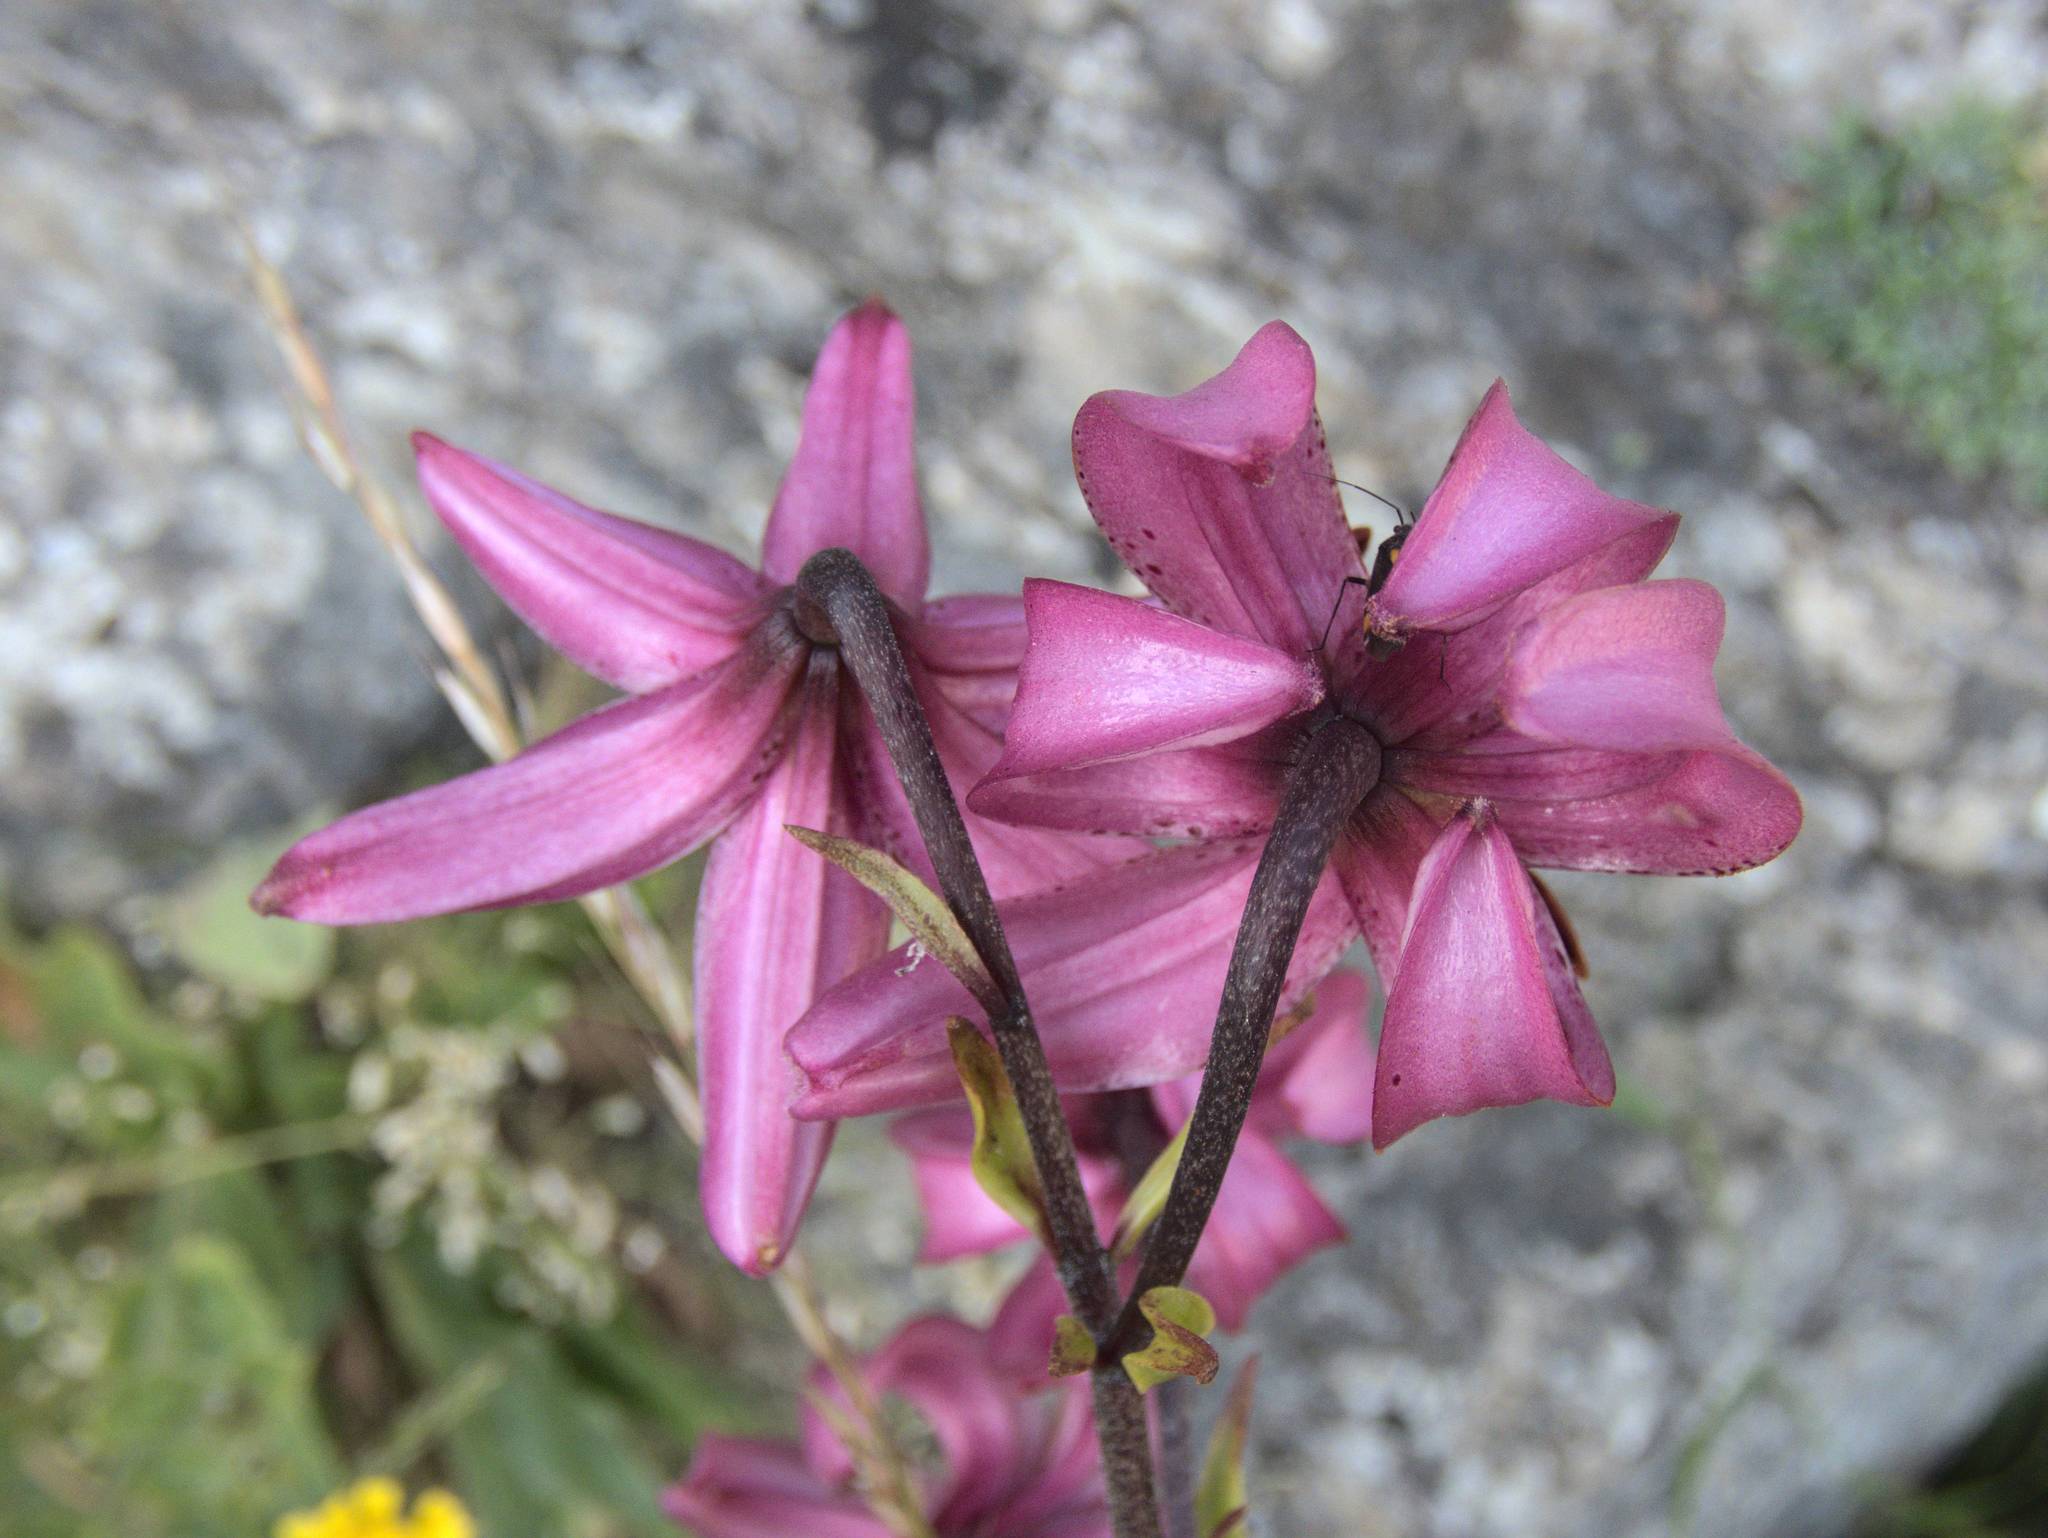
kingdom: Plantae
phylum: Tracheophyta
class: Liliopsida
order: Liliales
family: Liliaceae
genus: Lilium
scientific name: Lilium martagon
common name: Martagon lily
